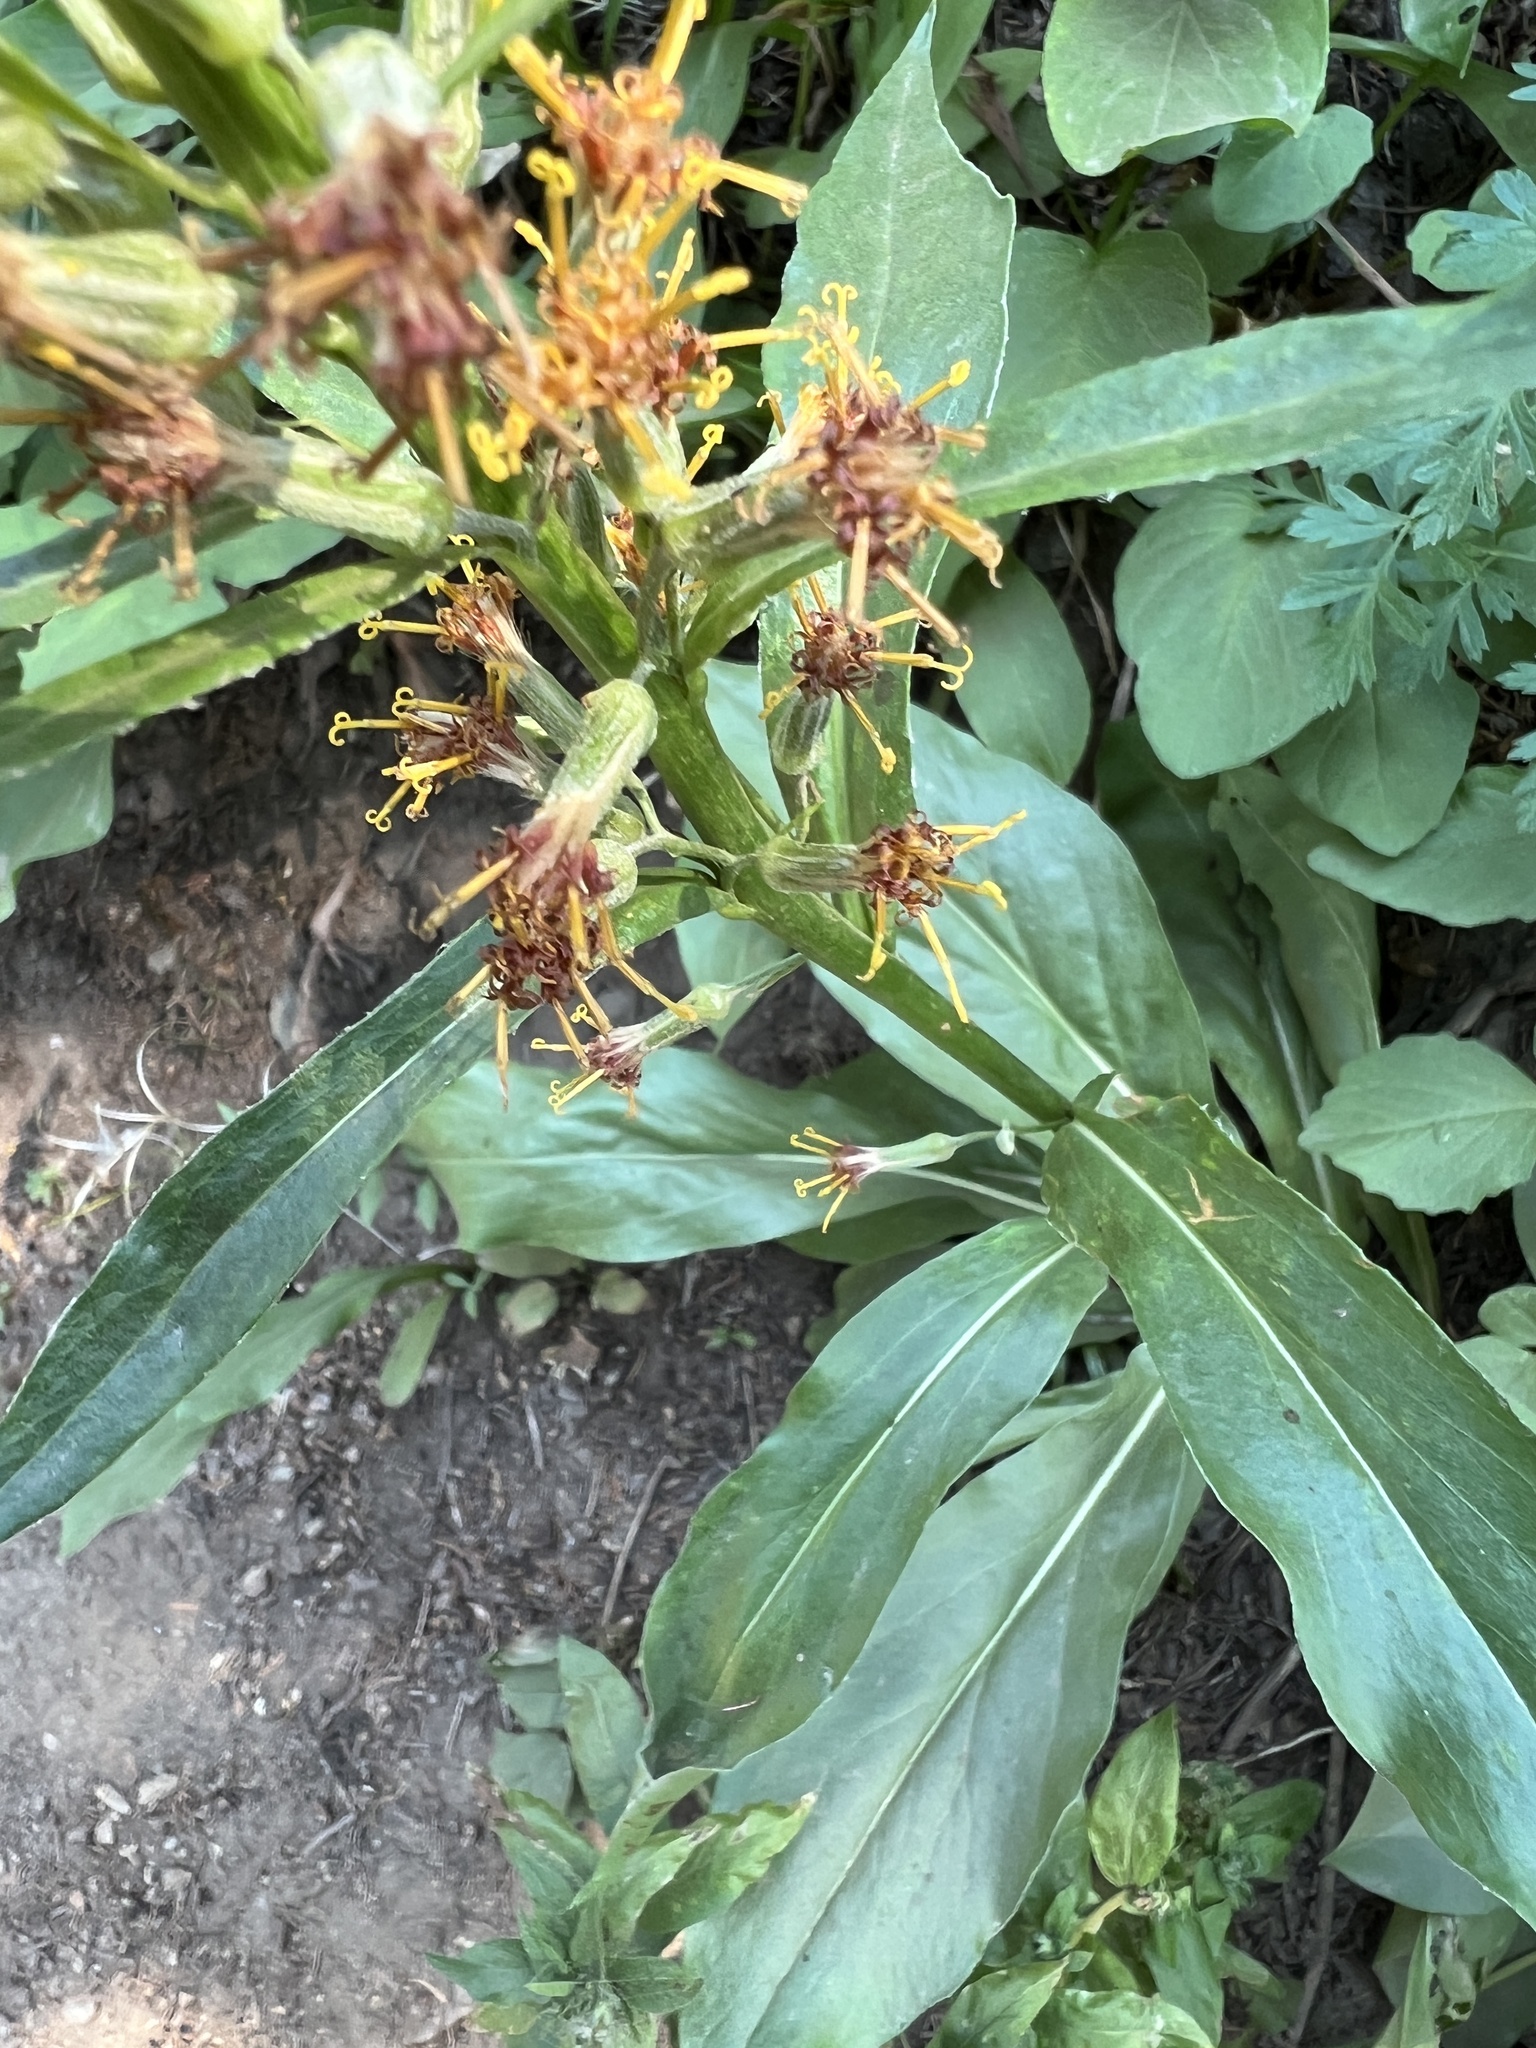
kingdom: Plantae
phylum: Tracheophyta
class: Magnoliopsida
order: Asterales
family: Asteraceae
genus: Rainiera
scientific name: Rainiera stricta
